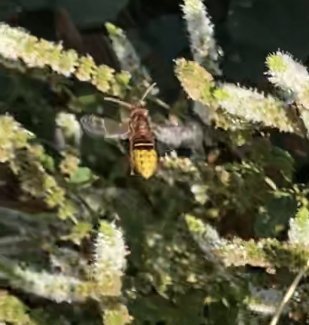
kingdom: Animalia
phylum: Arthropoda
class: Insecta
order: Hymenoptera
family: Vespidae
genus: Vespa
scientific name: Vespa crabro
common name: Hornet
